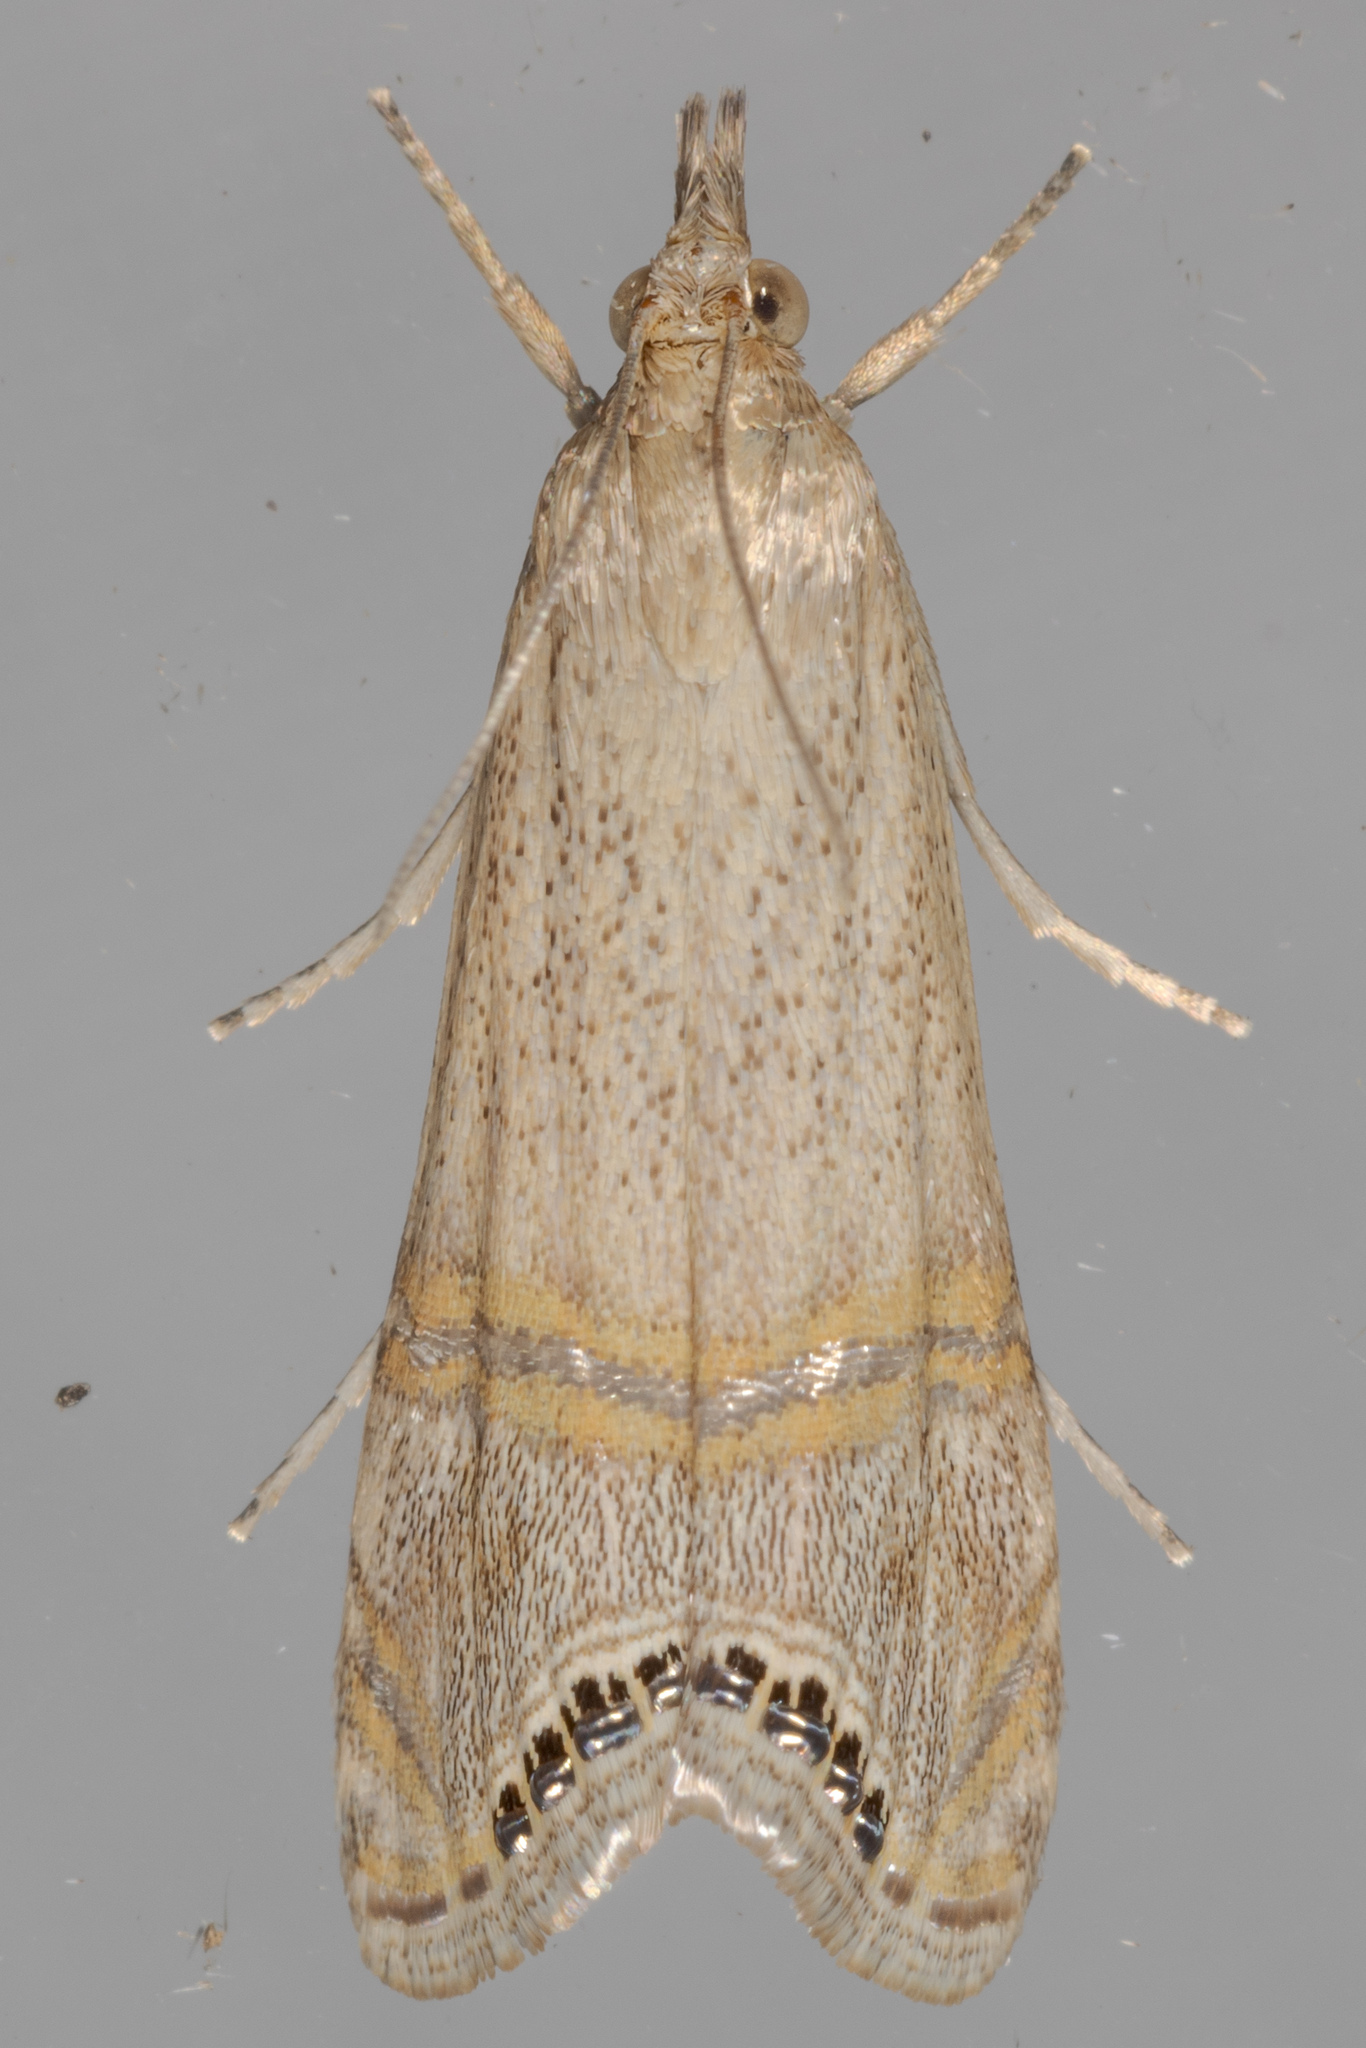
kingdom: Animalia
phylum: Arthropoda
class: Insecta
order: Lepidoptera
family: Crambidae
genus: Euchromius
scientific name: Euchromius ocellea
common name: Necklace veneer moth
